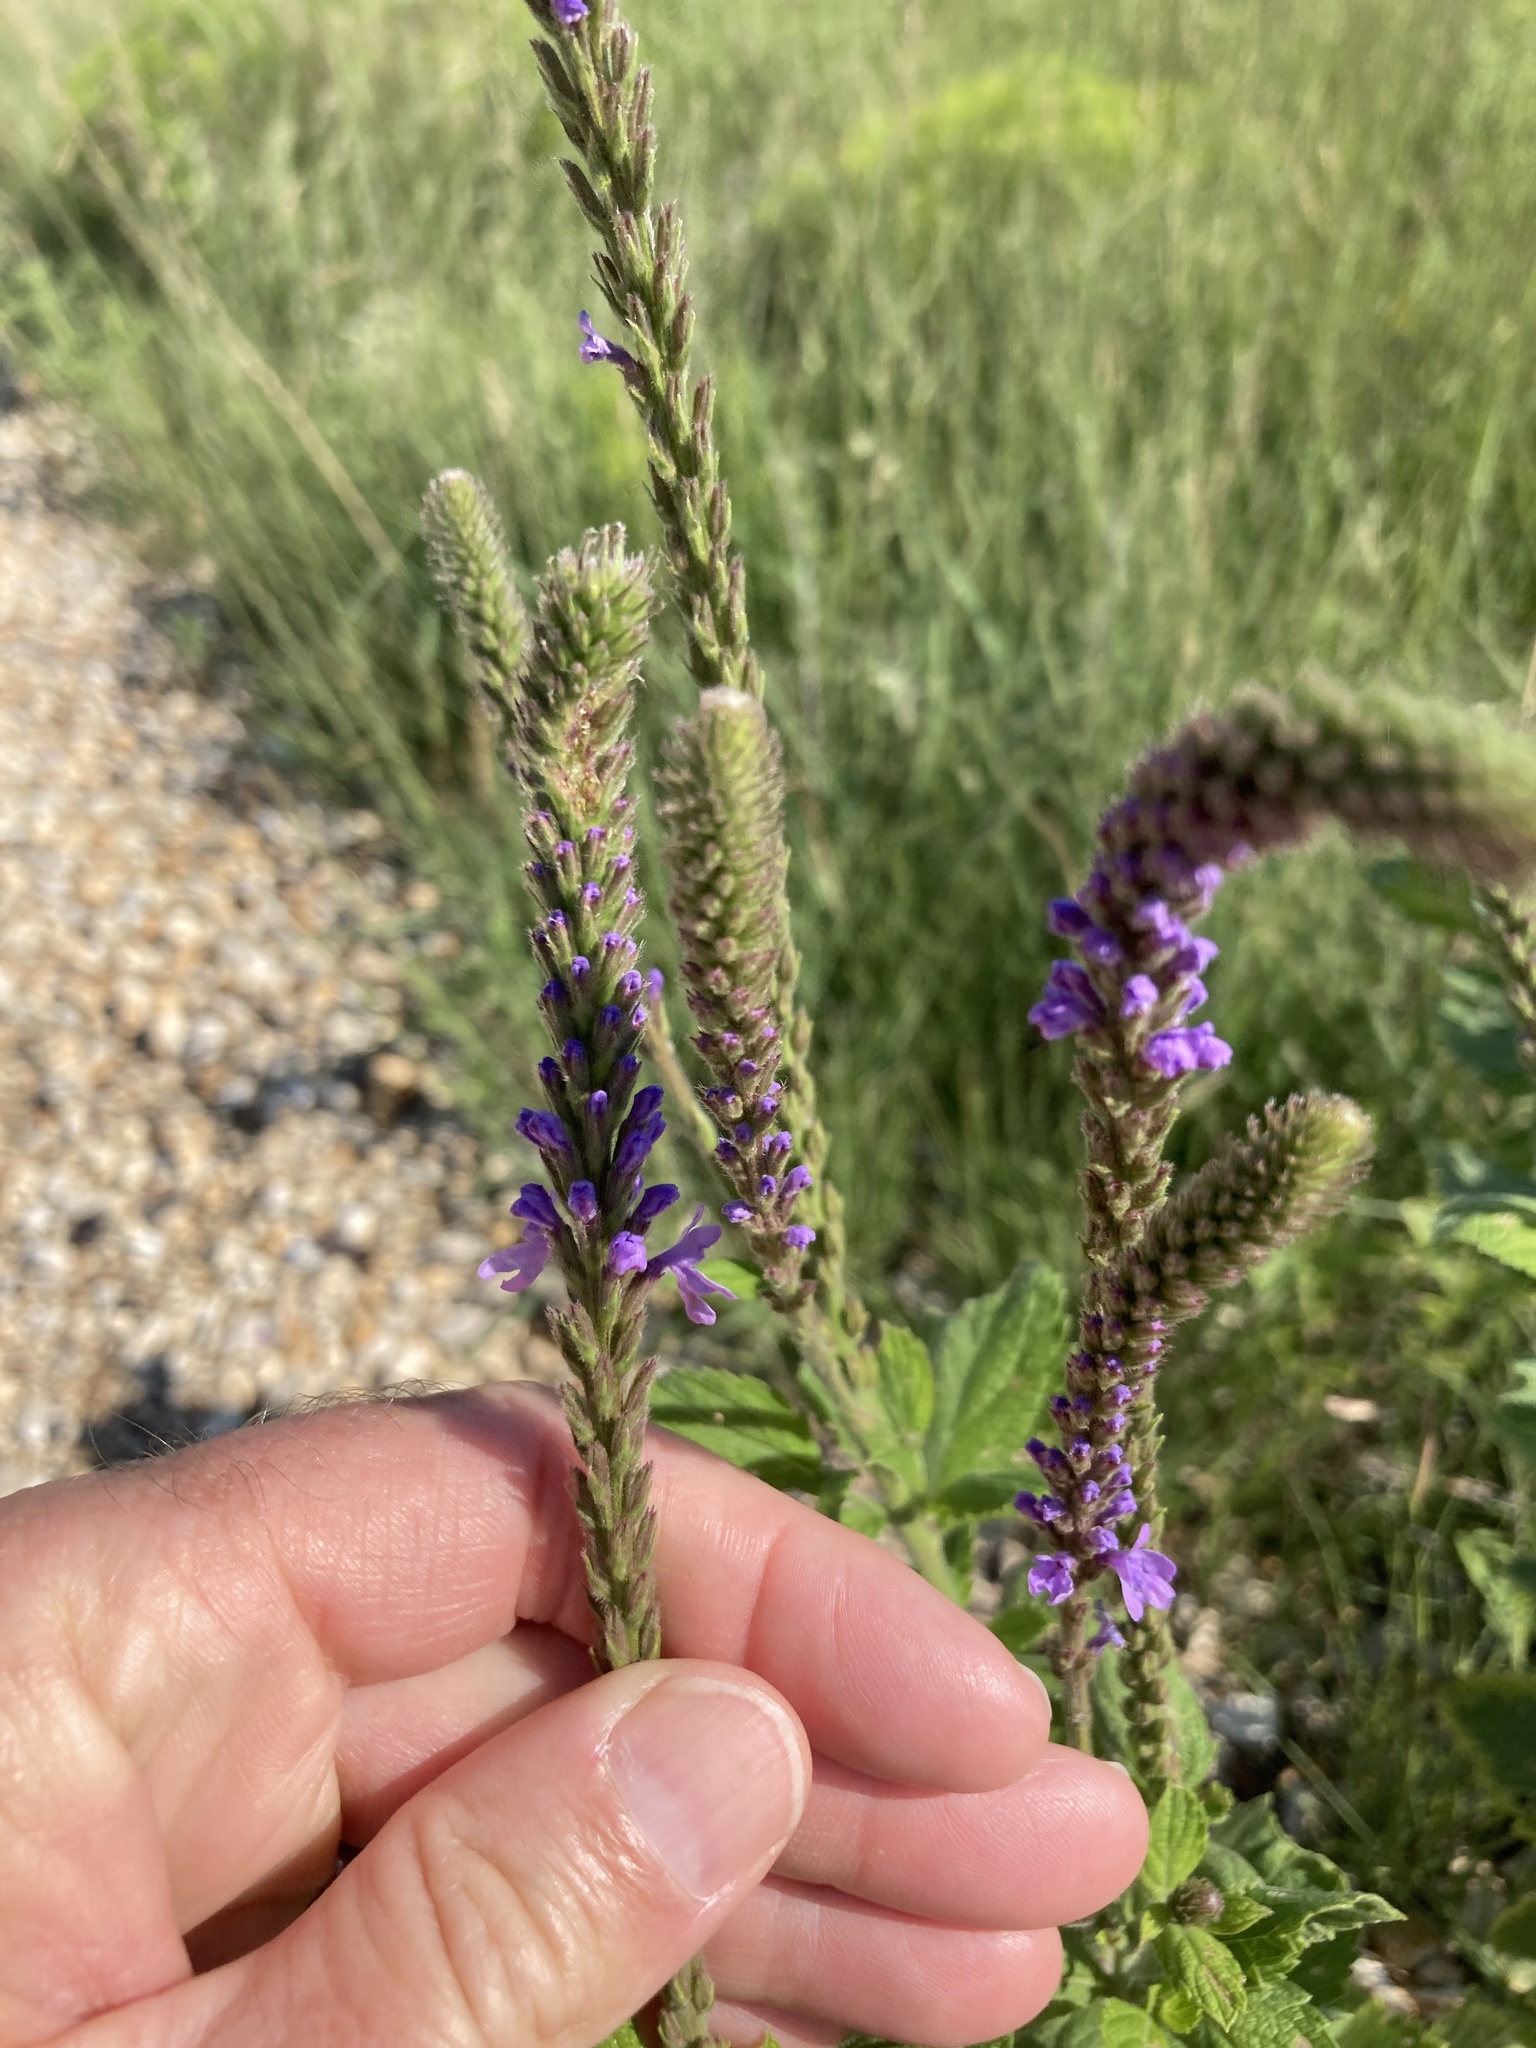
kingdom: Plantae
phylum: Tracheophyta
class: Magnoliopsida
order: Lamiales
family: Verbenaceae
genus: Verbena
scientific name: Verbena stricta
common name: Hoary vervain
